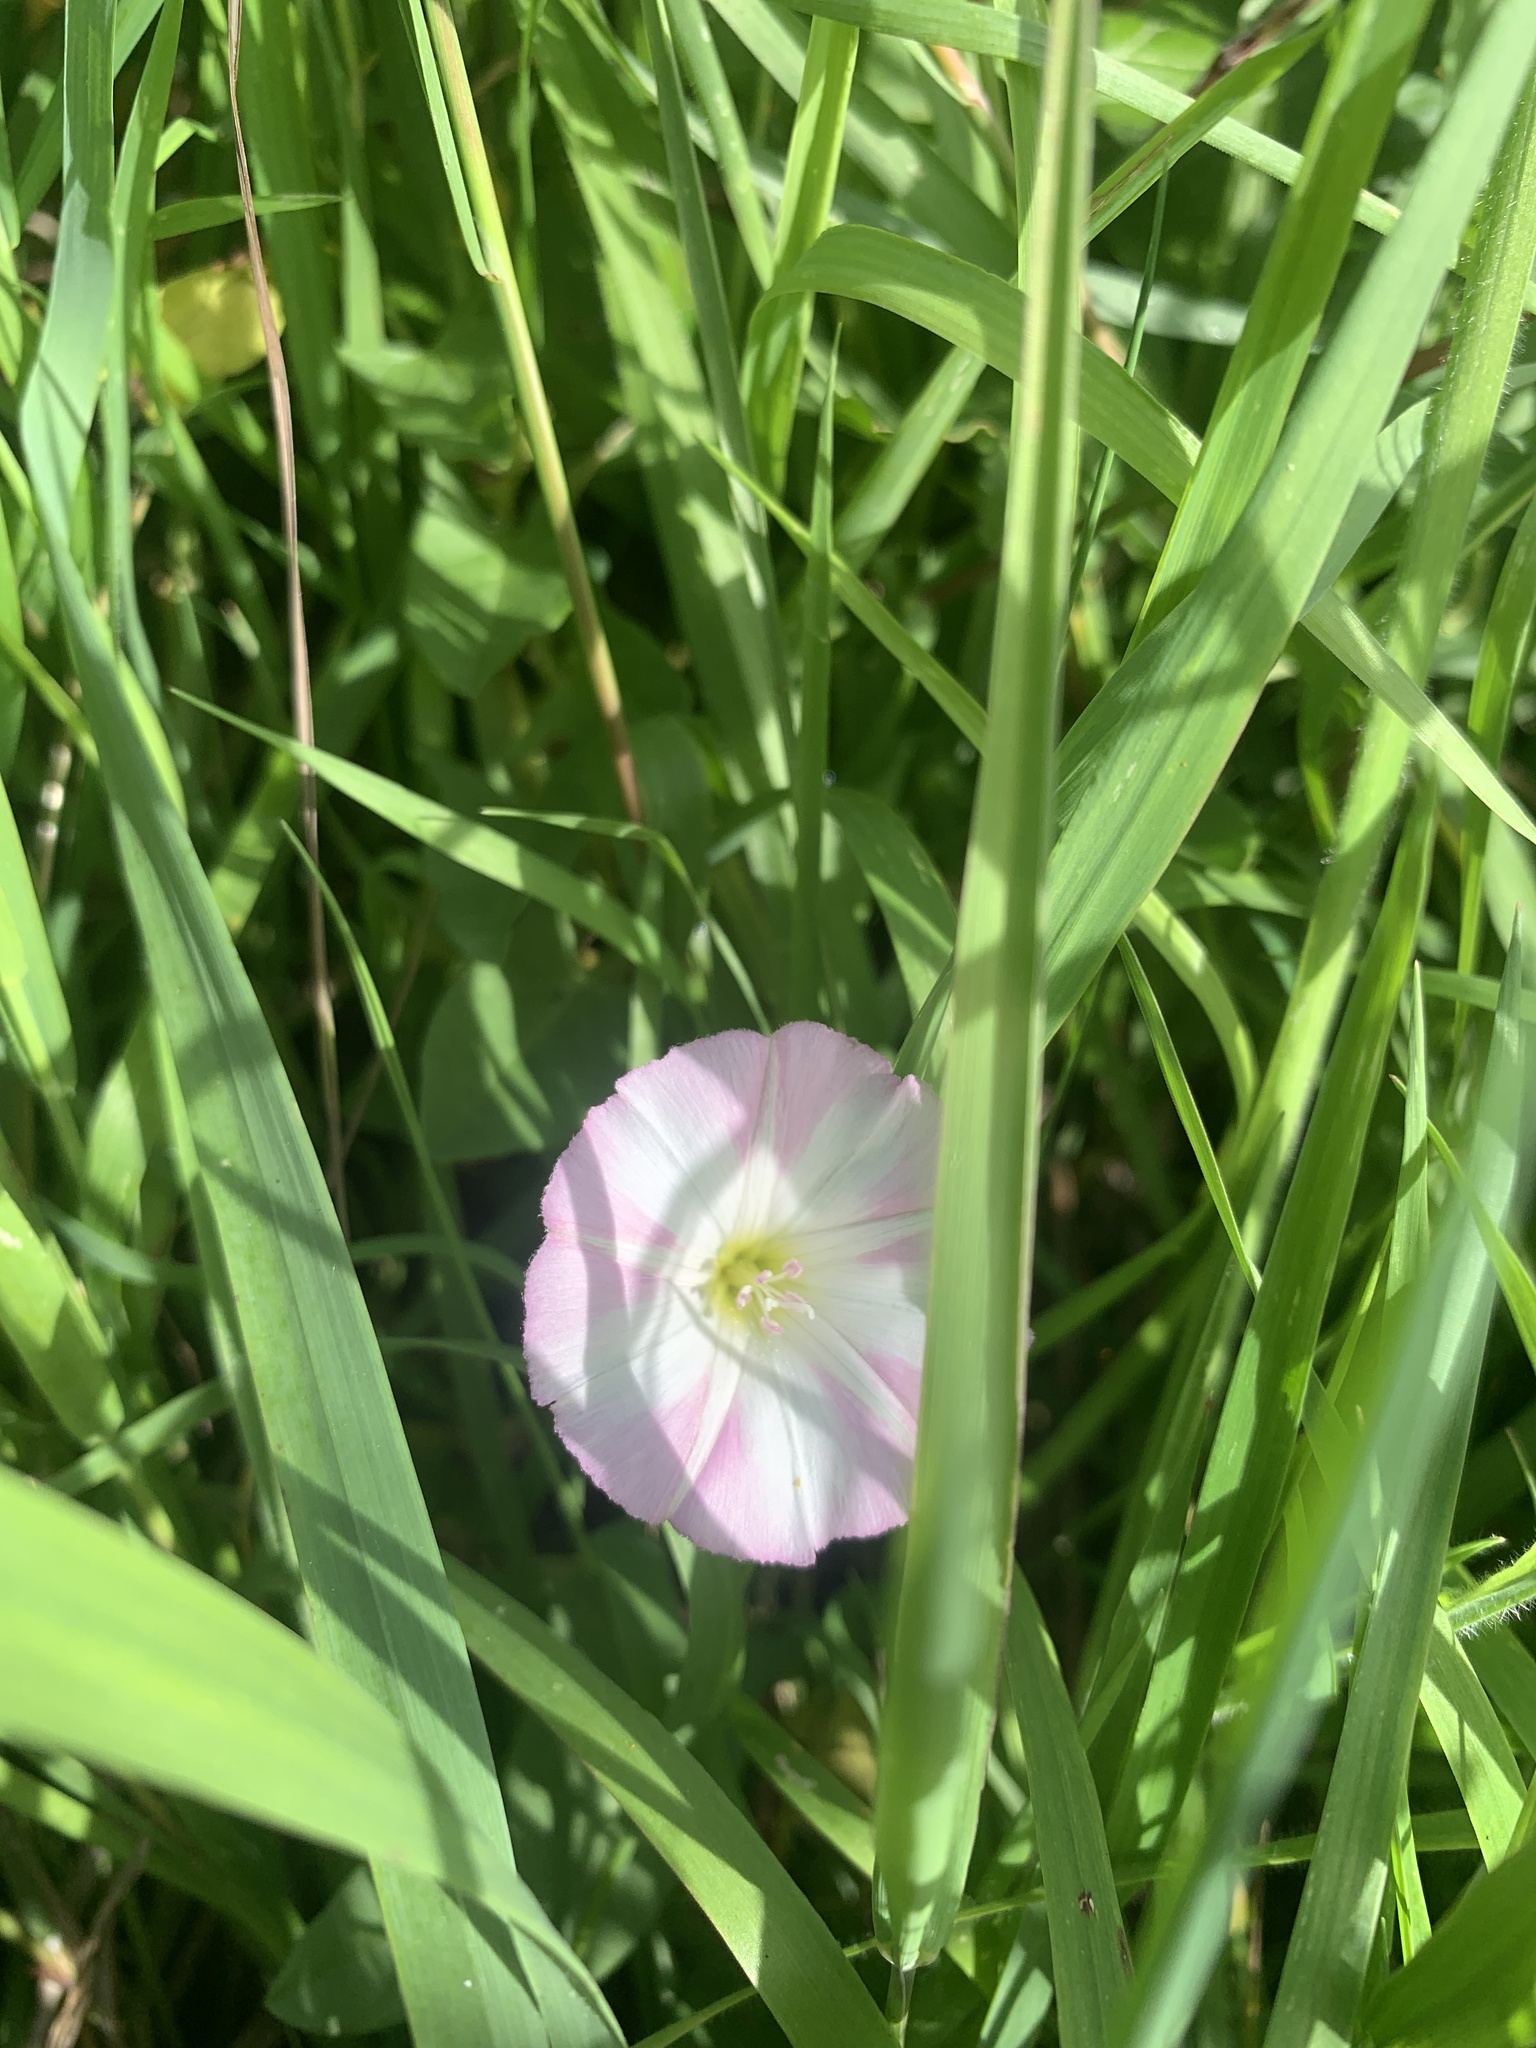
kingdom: Plantae
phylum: Tracheophyta
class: Magnoliopsida
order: Solanales
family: Convolvulaceae
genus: Convolvulus
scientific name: Convolvulus arvensis
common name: Field bindweed
